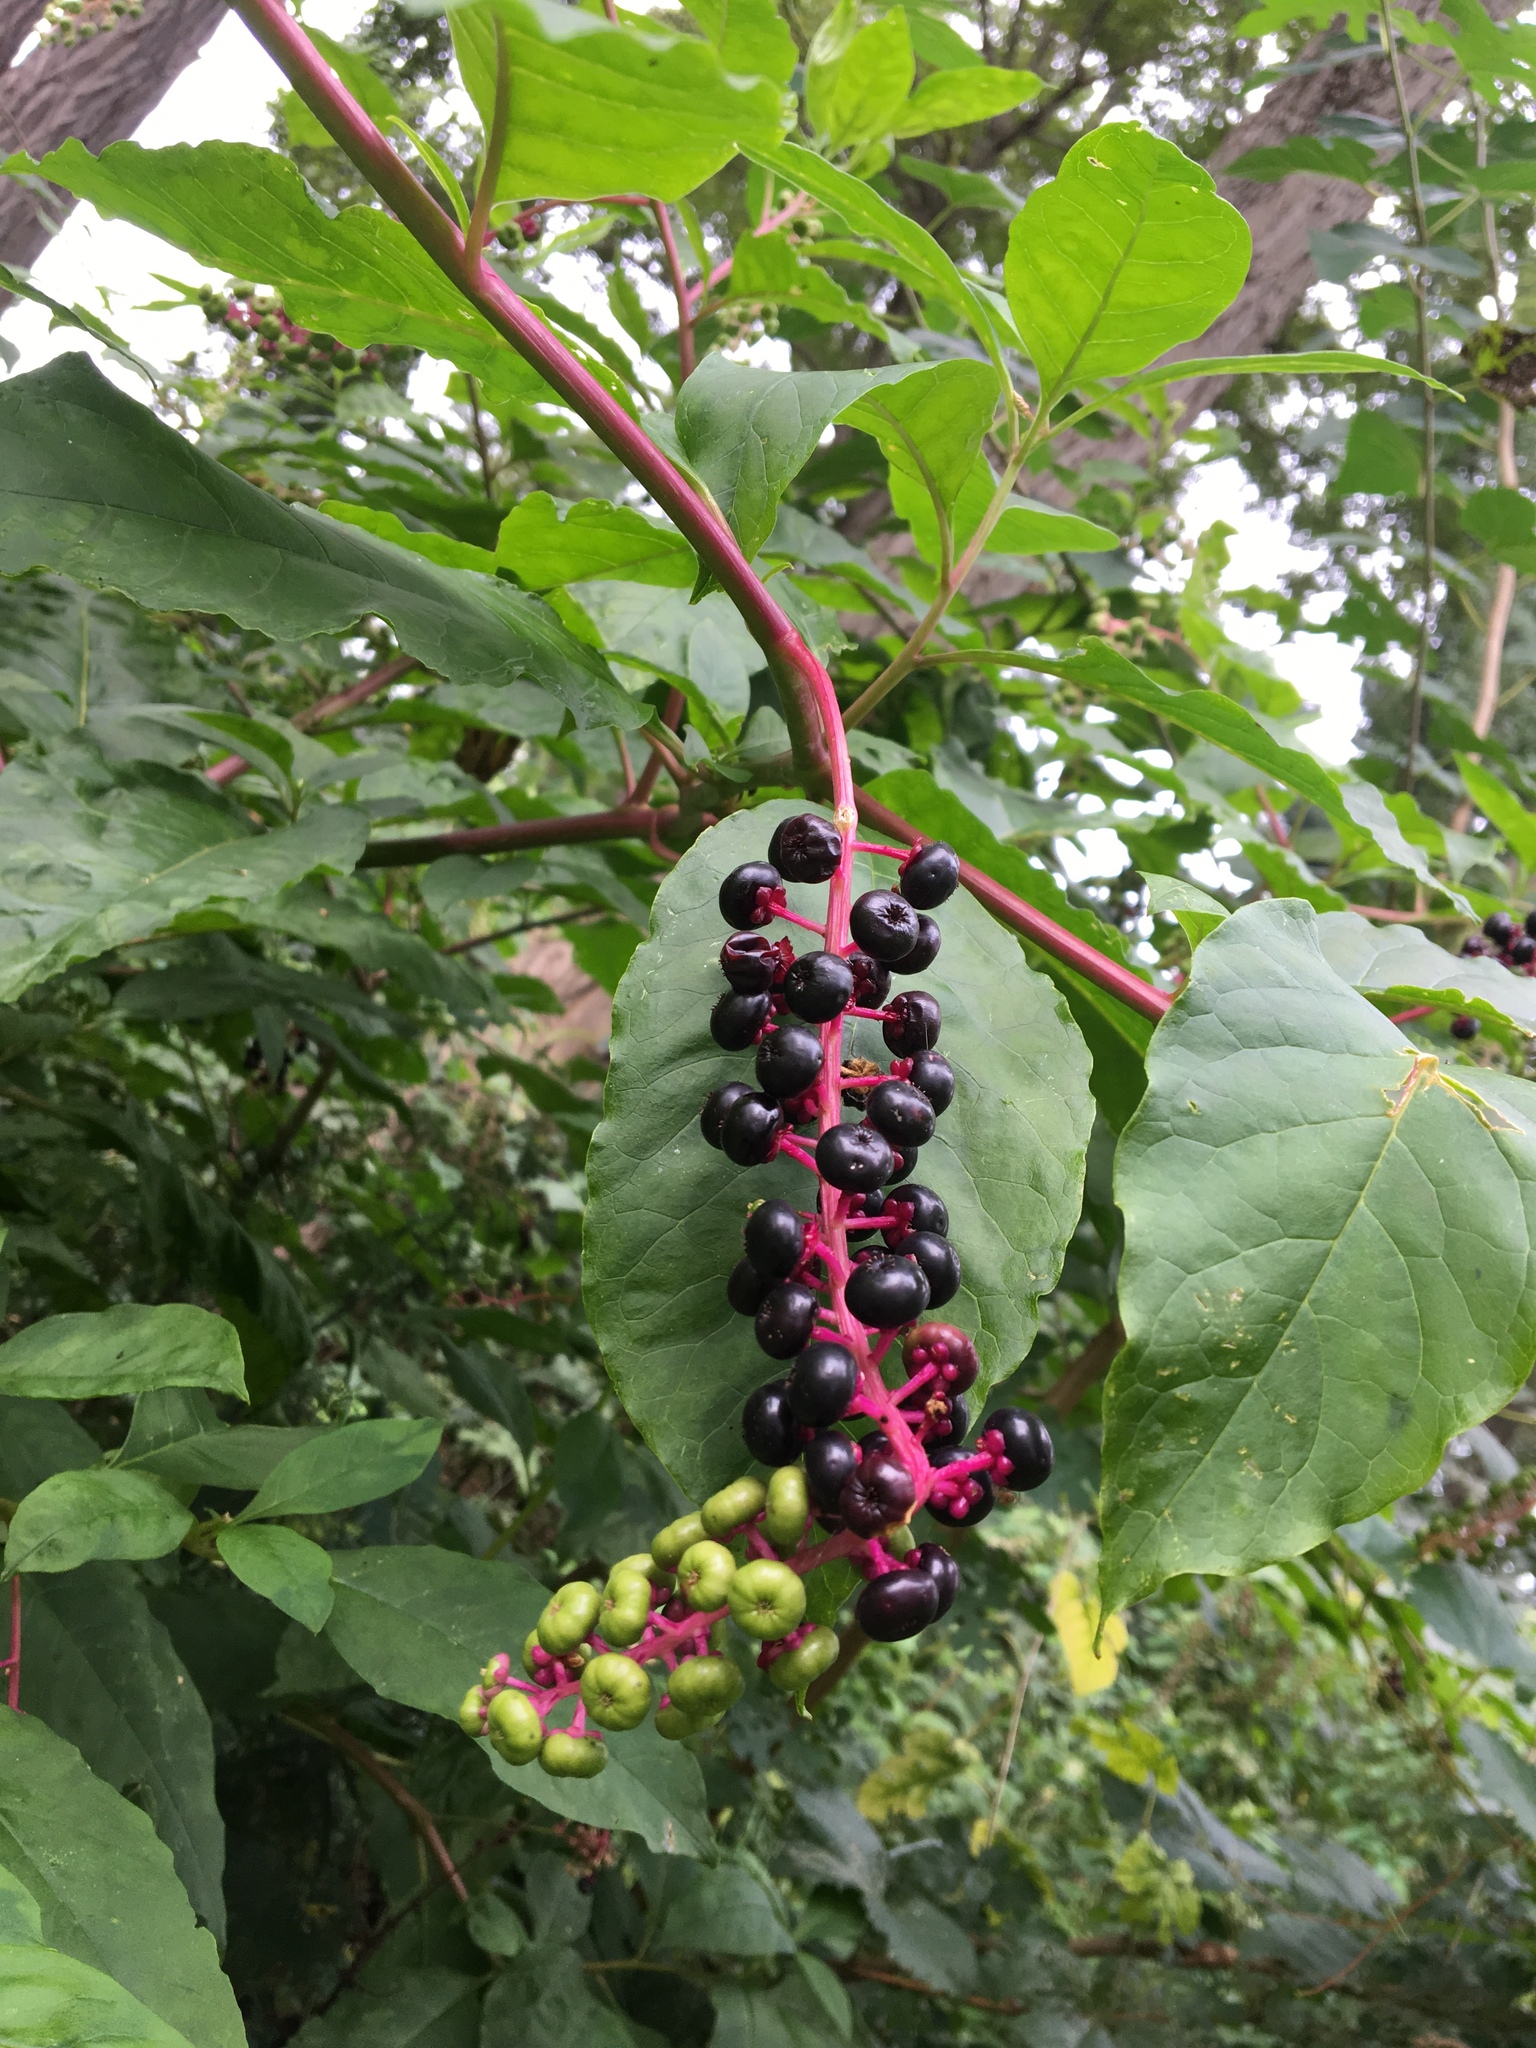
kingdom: Plantae
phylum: Tracheophyta
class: Magnoliopsida
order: Caryophyllales
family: Phytolaccaceae
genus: Phytolacca
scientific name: Phytolacca americana
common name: American pokeweed
